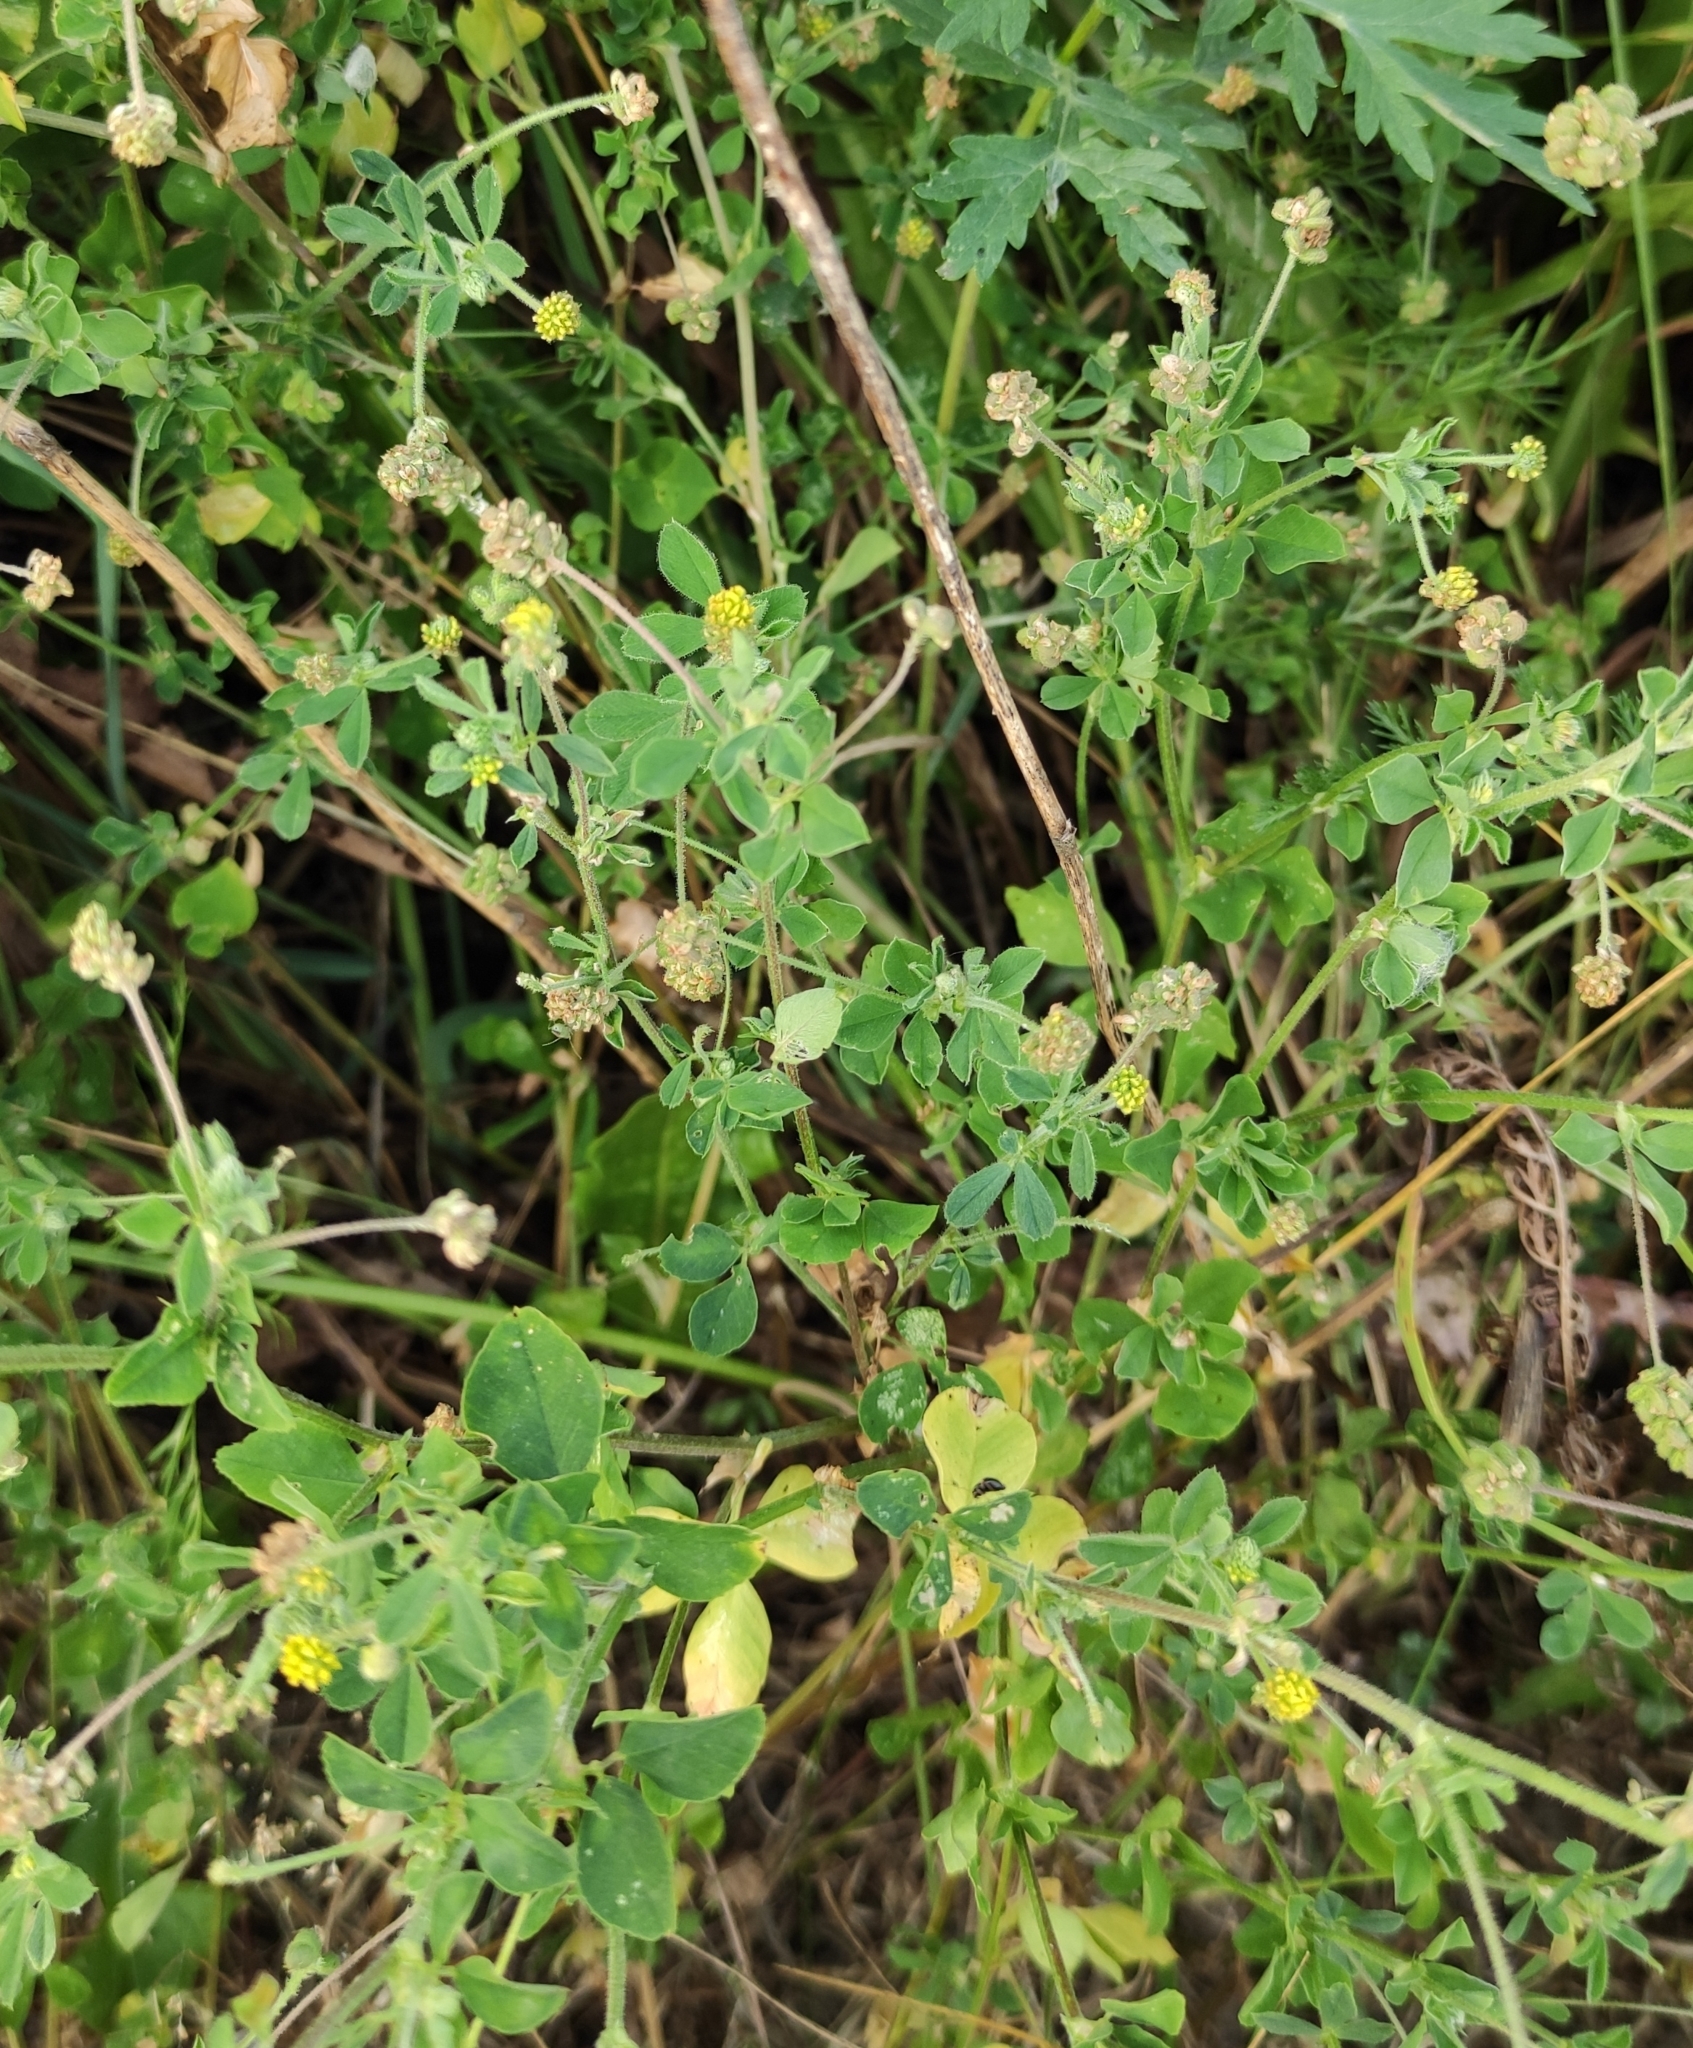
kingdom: Plantae
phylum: Tracheophyta
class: Magnoliopsida
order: Fabales
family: Fabaceae
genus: Medicago
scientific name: Medicago lupulina
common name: Black medick
